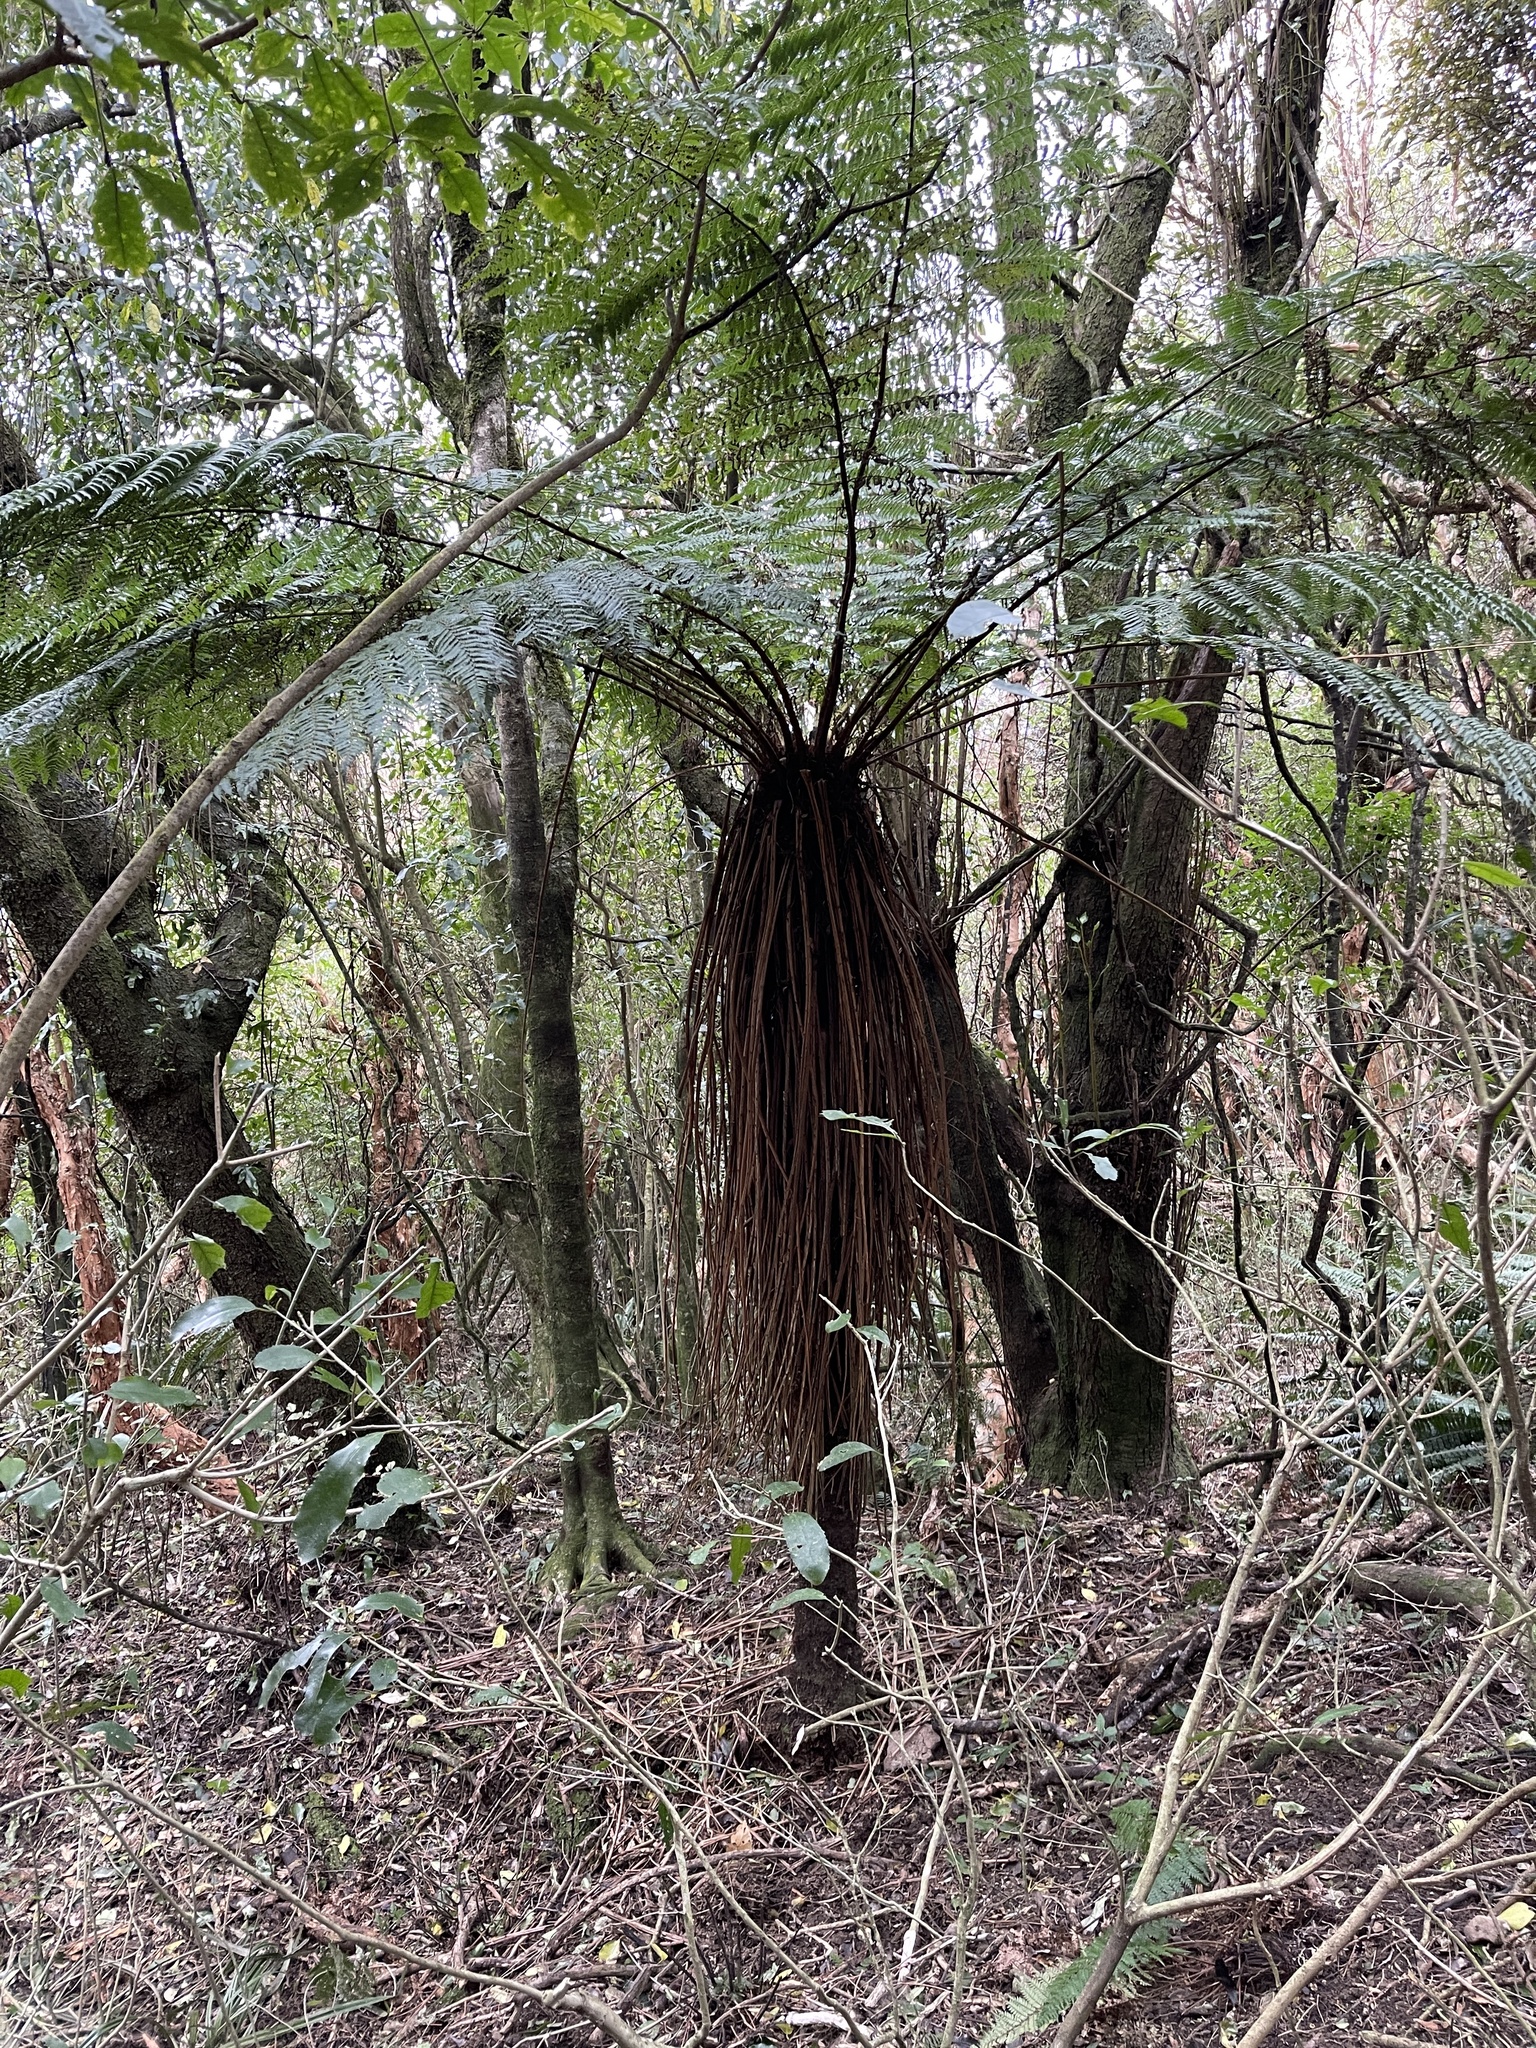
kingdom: Plantae
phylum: Tracheophyta
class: Polypodiopsida
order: Cyatheales
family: Cyatheaceae
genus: Alsophila
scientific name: Alsophila smithii
